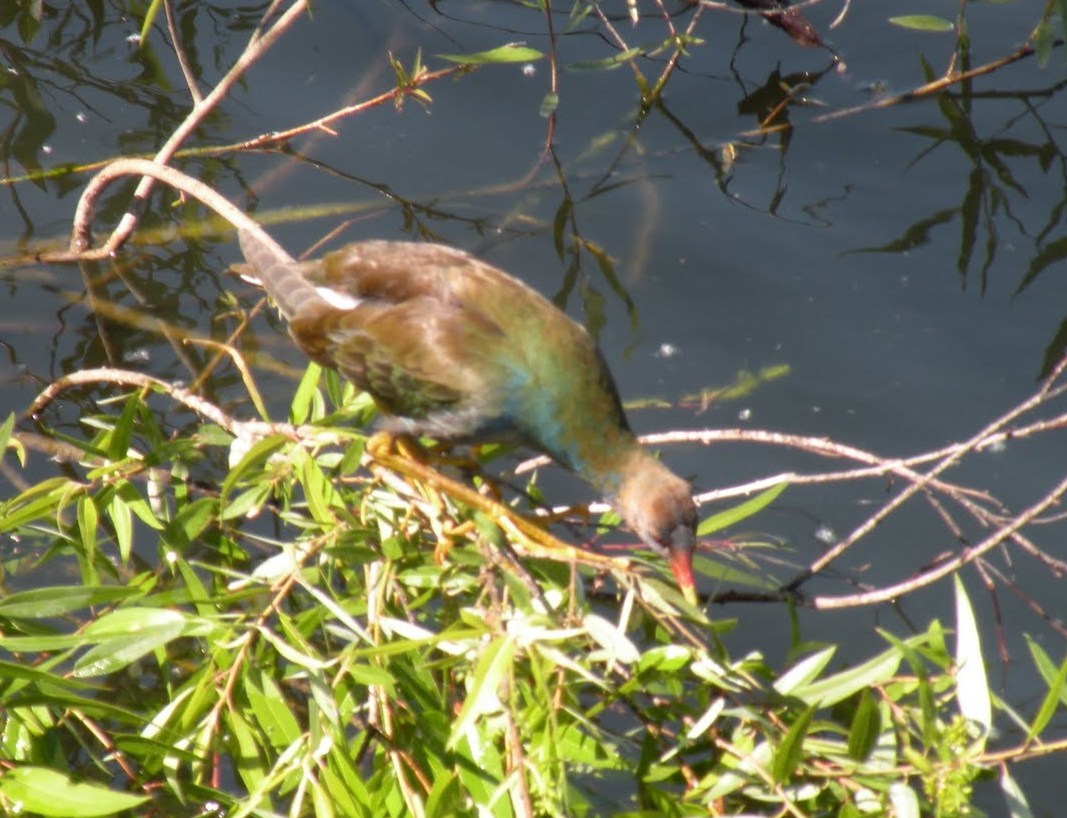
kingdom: Animalia
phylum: Chordata
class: Aves
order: Gruiformes
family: Rallidae
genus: Porphyrio
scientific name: Porphyrio martinica
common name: Purple gallinule
